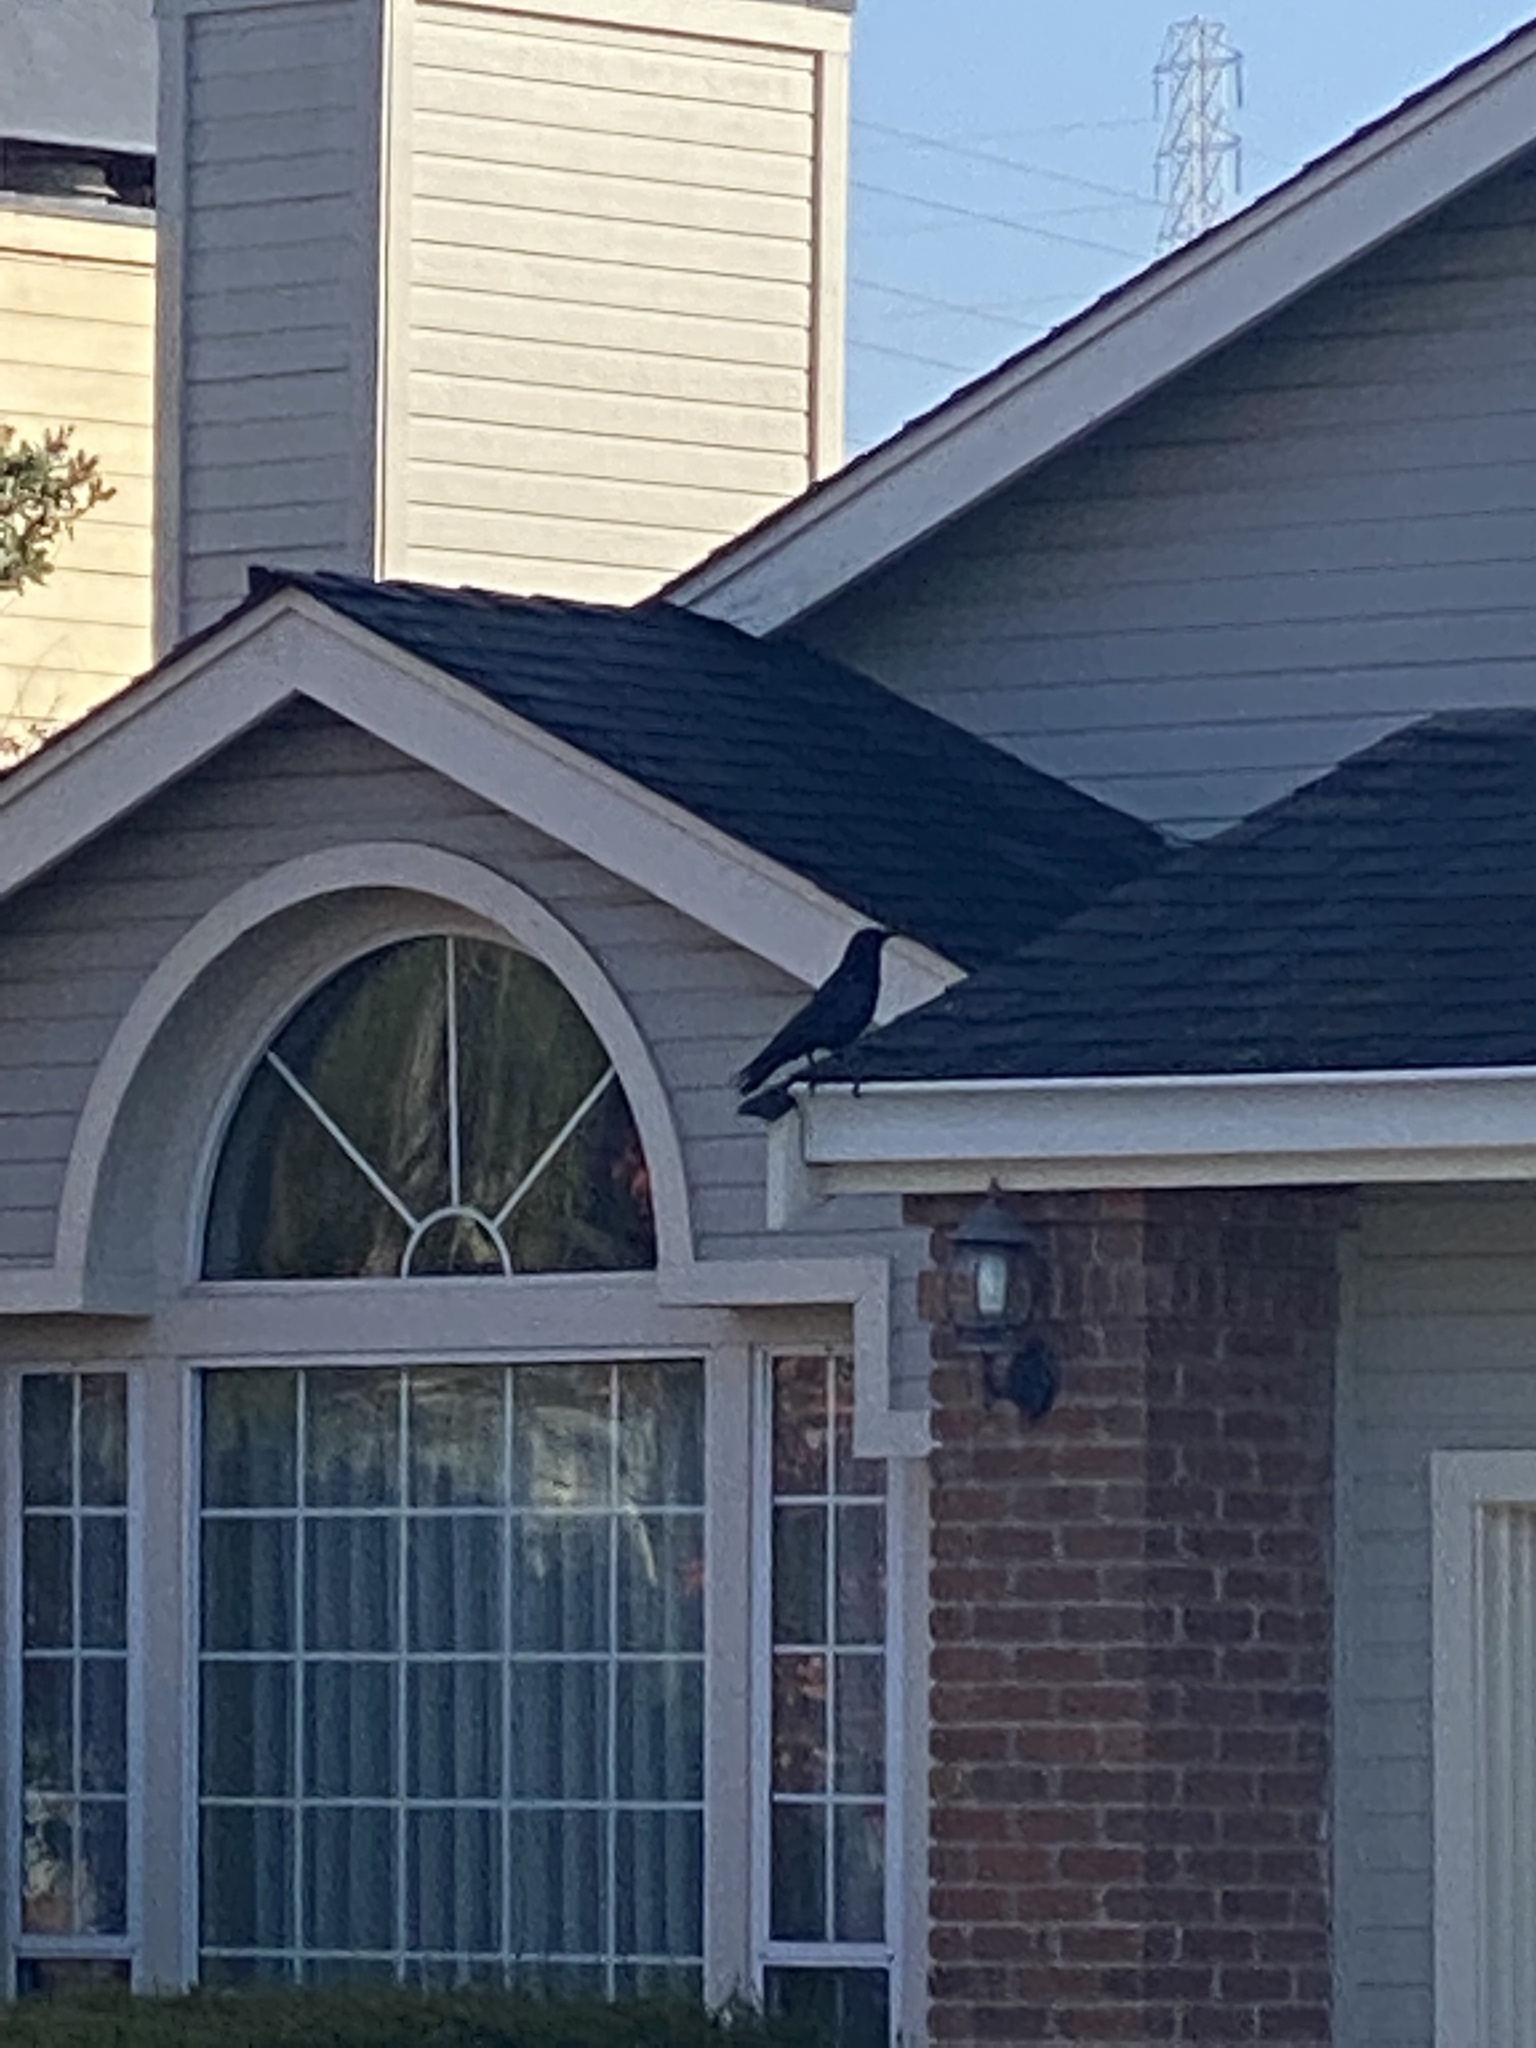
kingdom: Animalia
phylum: Chordata
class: Aves
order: Passeriformes
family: Corvidae
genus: Corvus
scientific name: Corvus brachyrhynchos
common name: American crow
